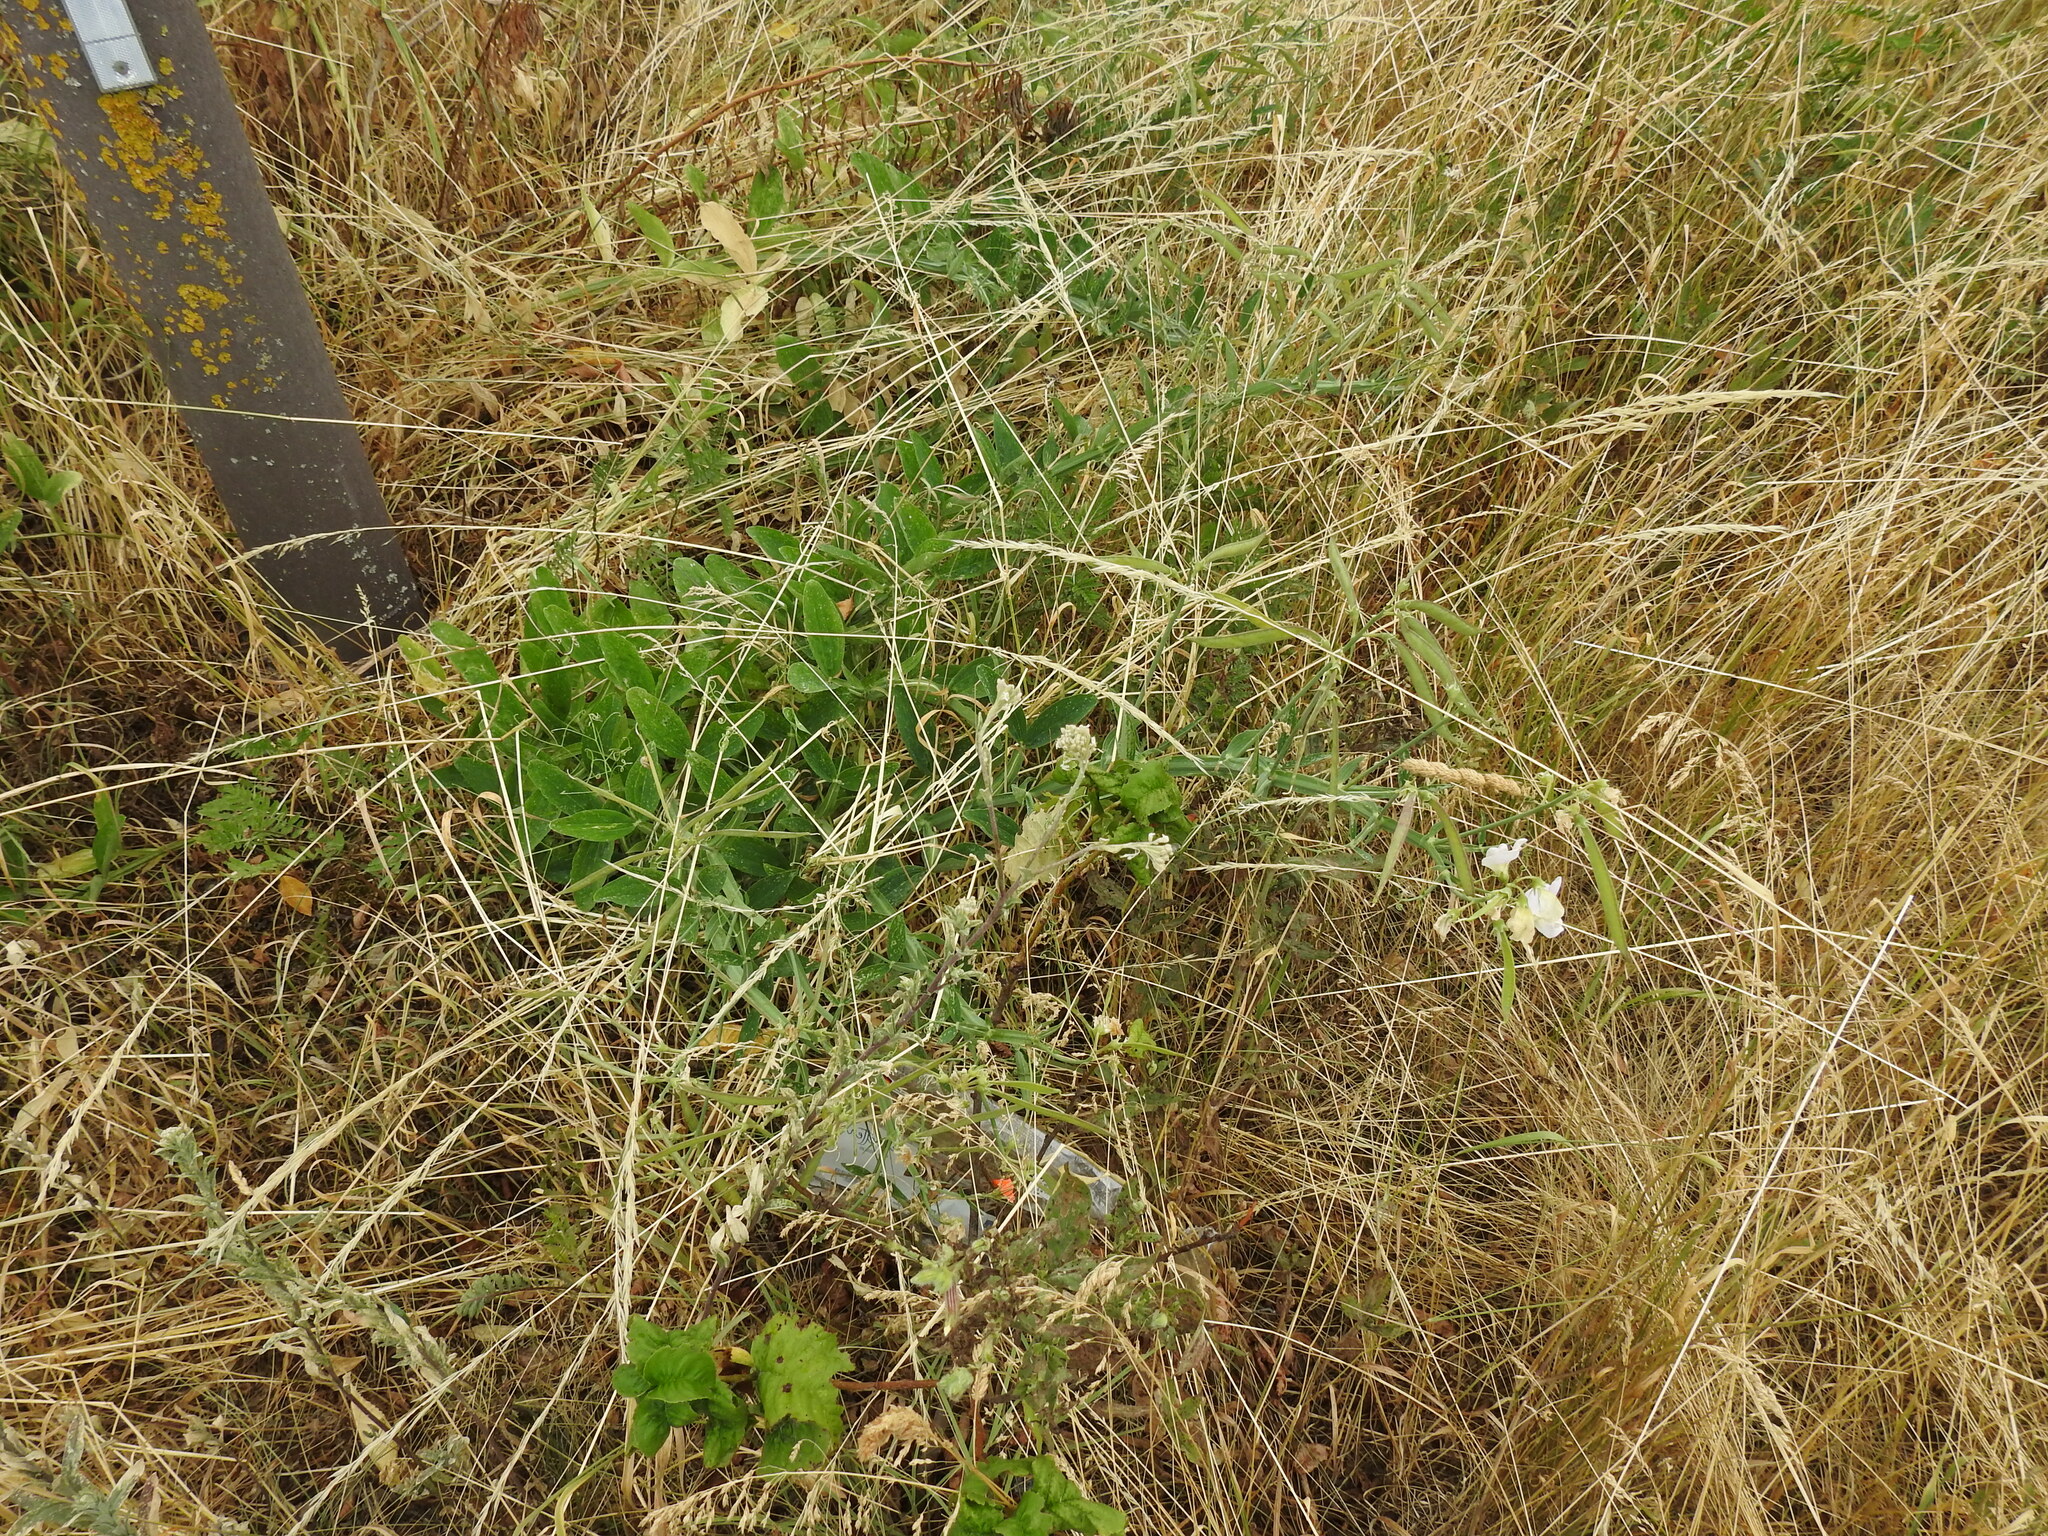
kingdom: Plantae
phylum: Tracheophyta
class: Magnoliopsida
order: Fabales
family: Fabaceae
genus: Lathyrus
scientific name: Lathyrus latifolius
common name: Perennial pea
